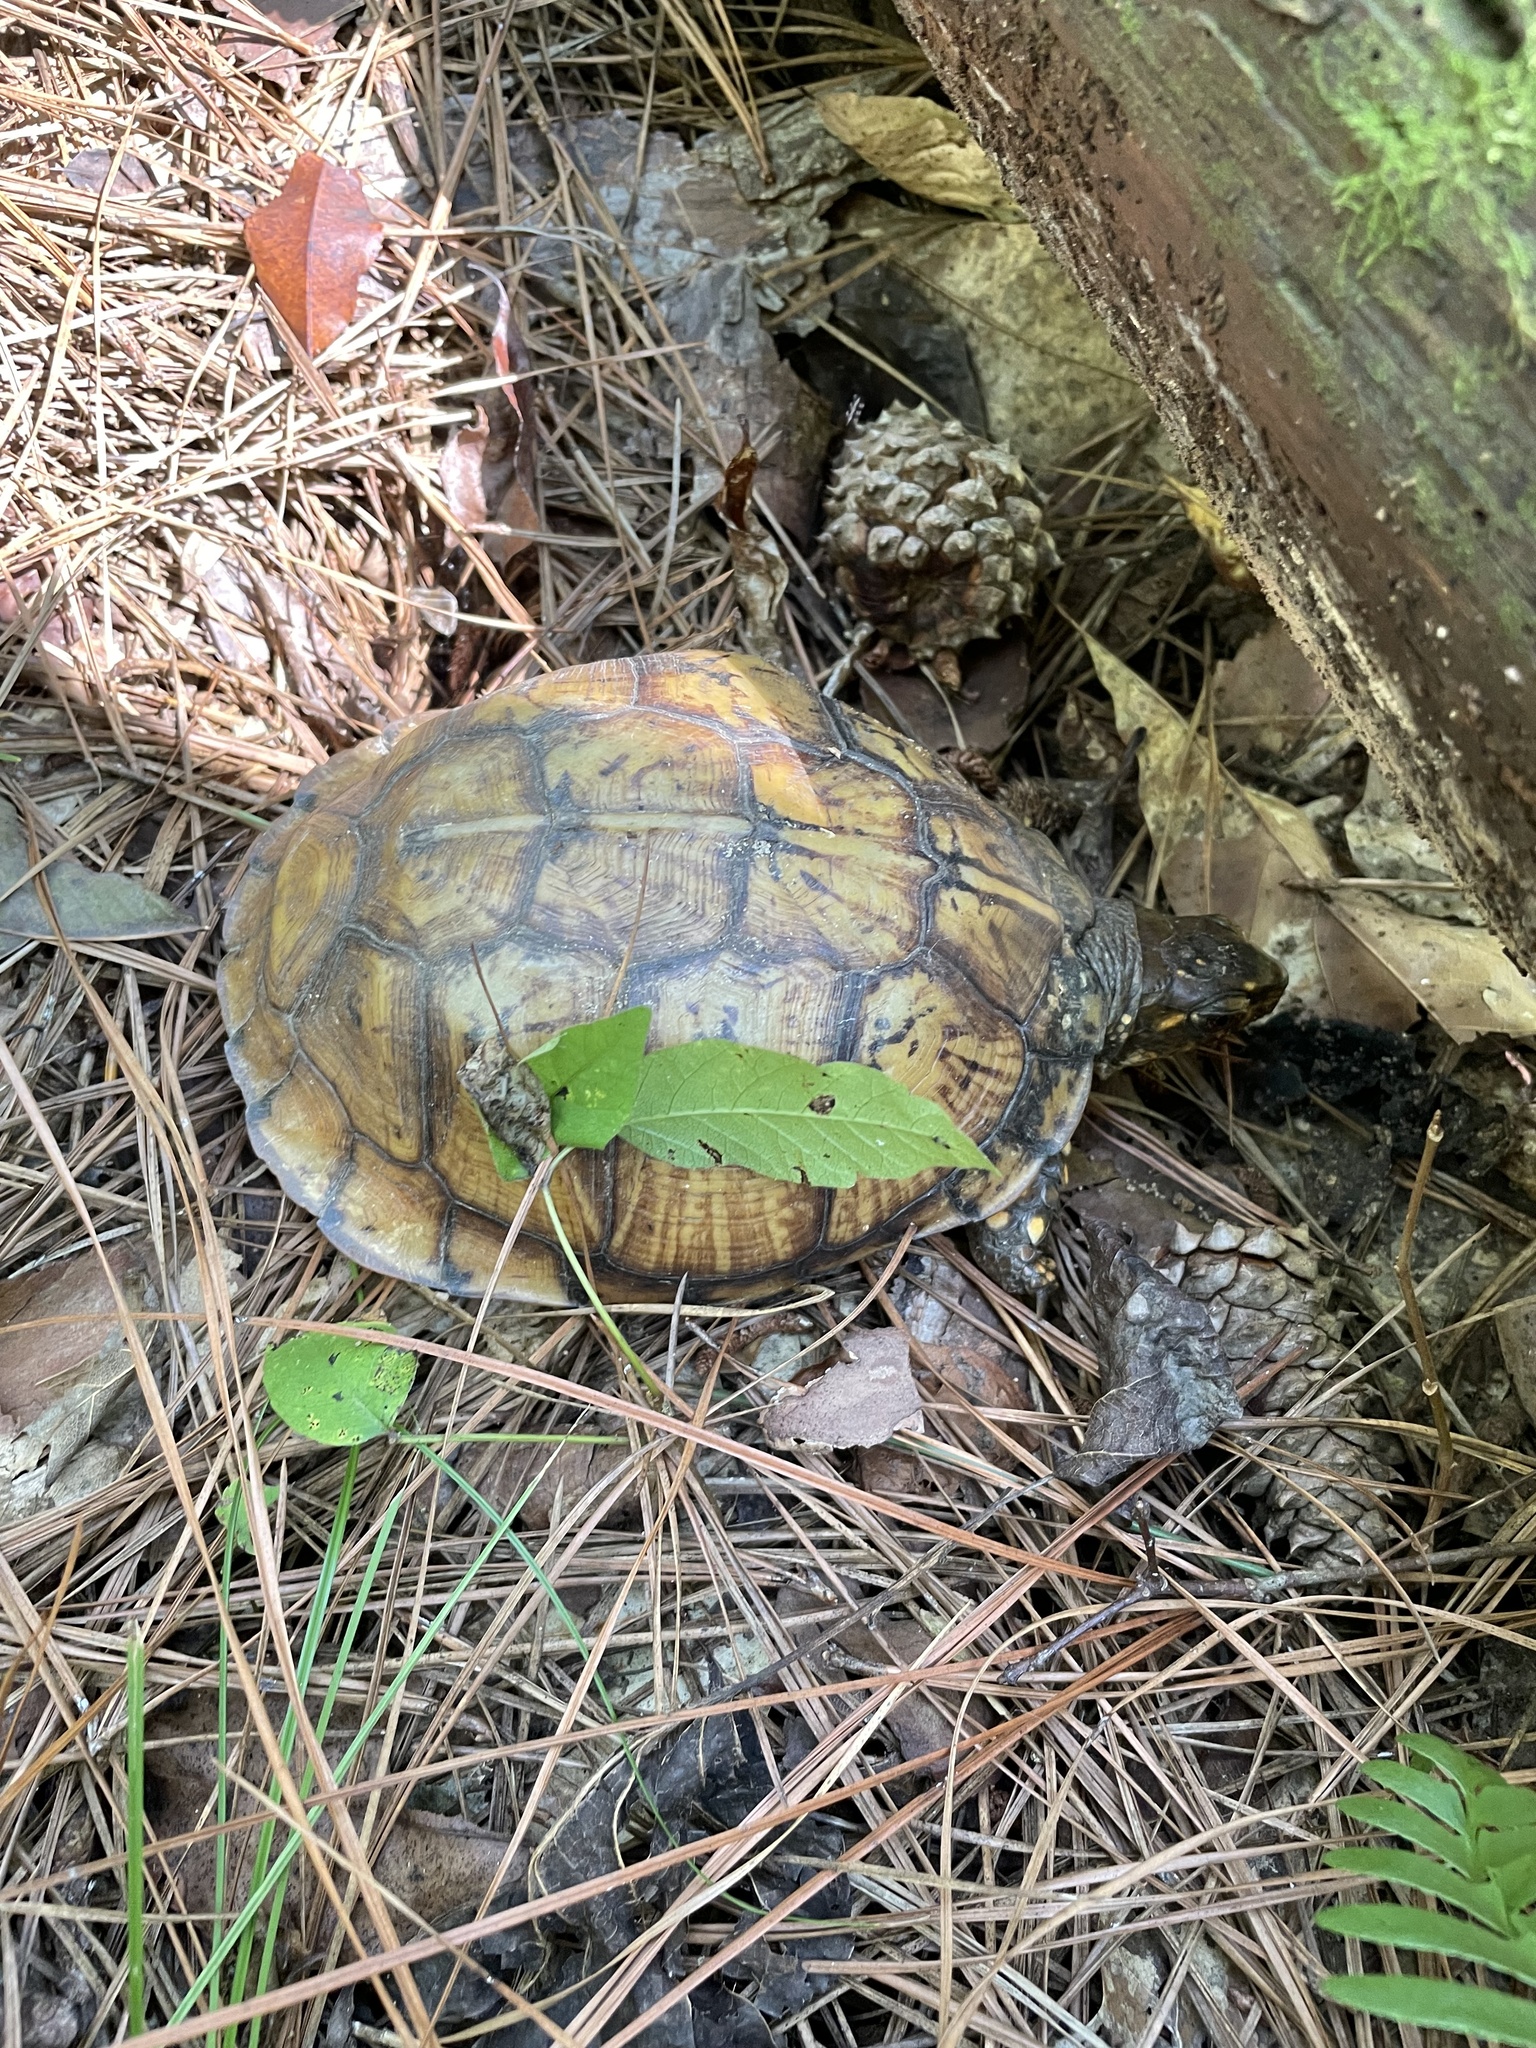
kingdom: Animalia
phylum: Chordata
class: Testudines
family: Emydidae
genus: Terrapene
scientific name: Terrapene carolina
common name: Common box turtle
